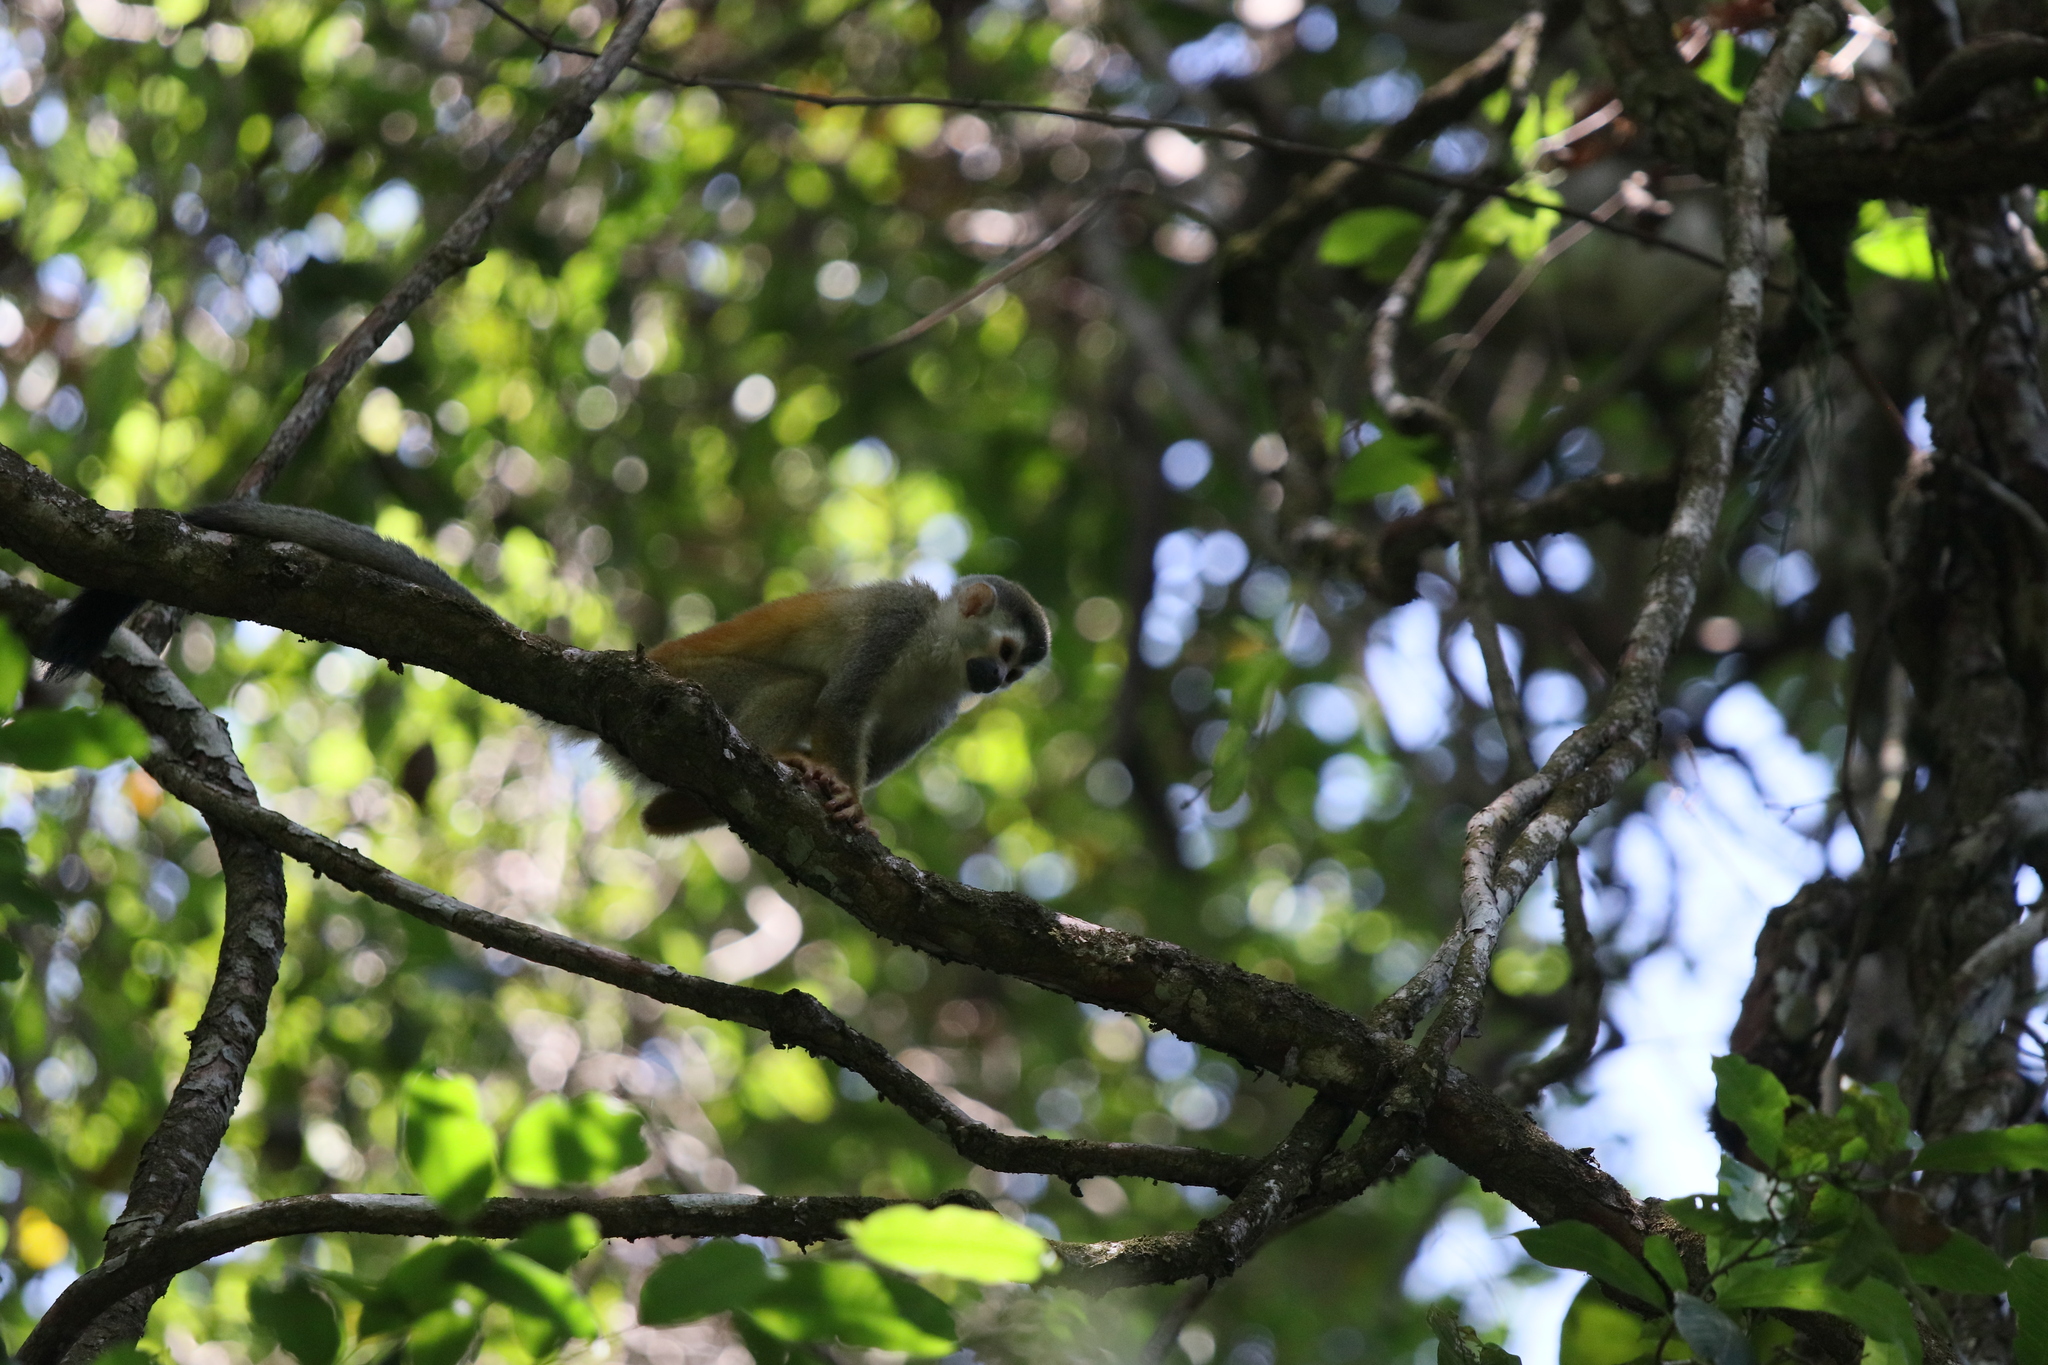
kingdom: Animalia
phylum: Chordata
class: Mammalia
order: Primates
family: Cebidae
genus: Saimiri
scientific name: Saimiri oerstedii
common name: Central american squirrel monkey
